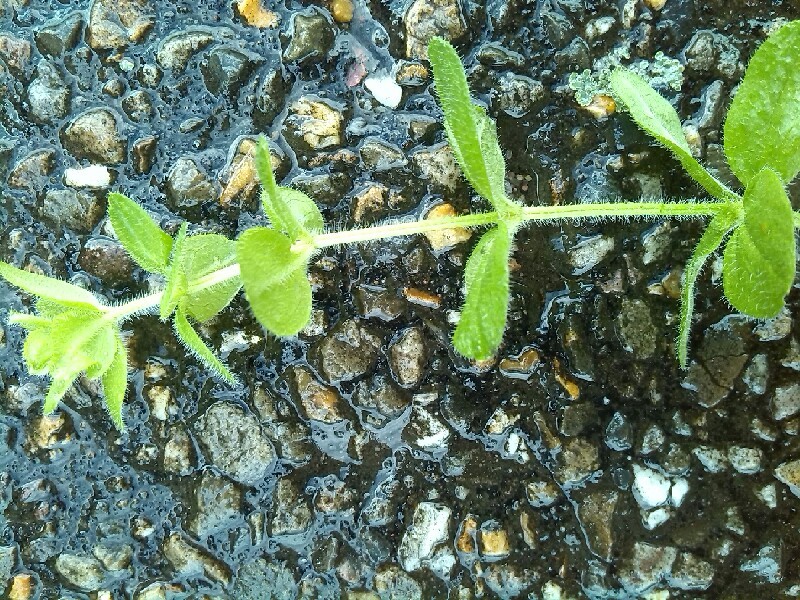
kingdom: Plantae
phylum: Tracheophyta
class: Magnoliopsida
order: Gentianales
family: Rubiaceae
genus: Cruciata
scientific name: Cruciata laevipes
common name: Crosswort
